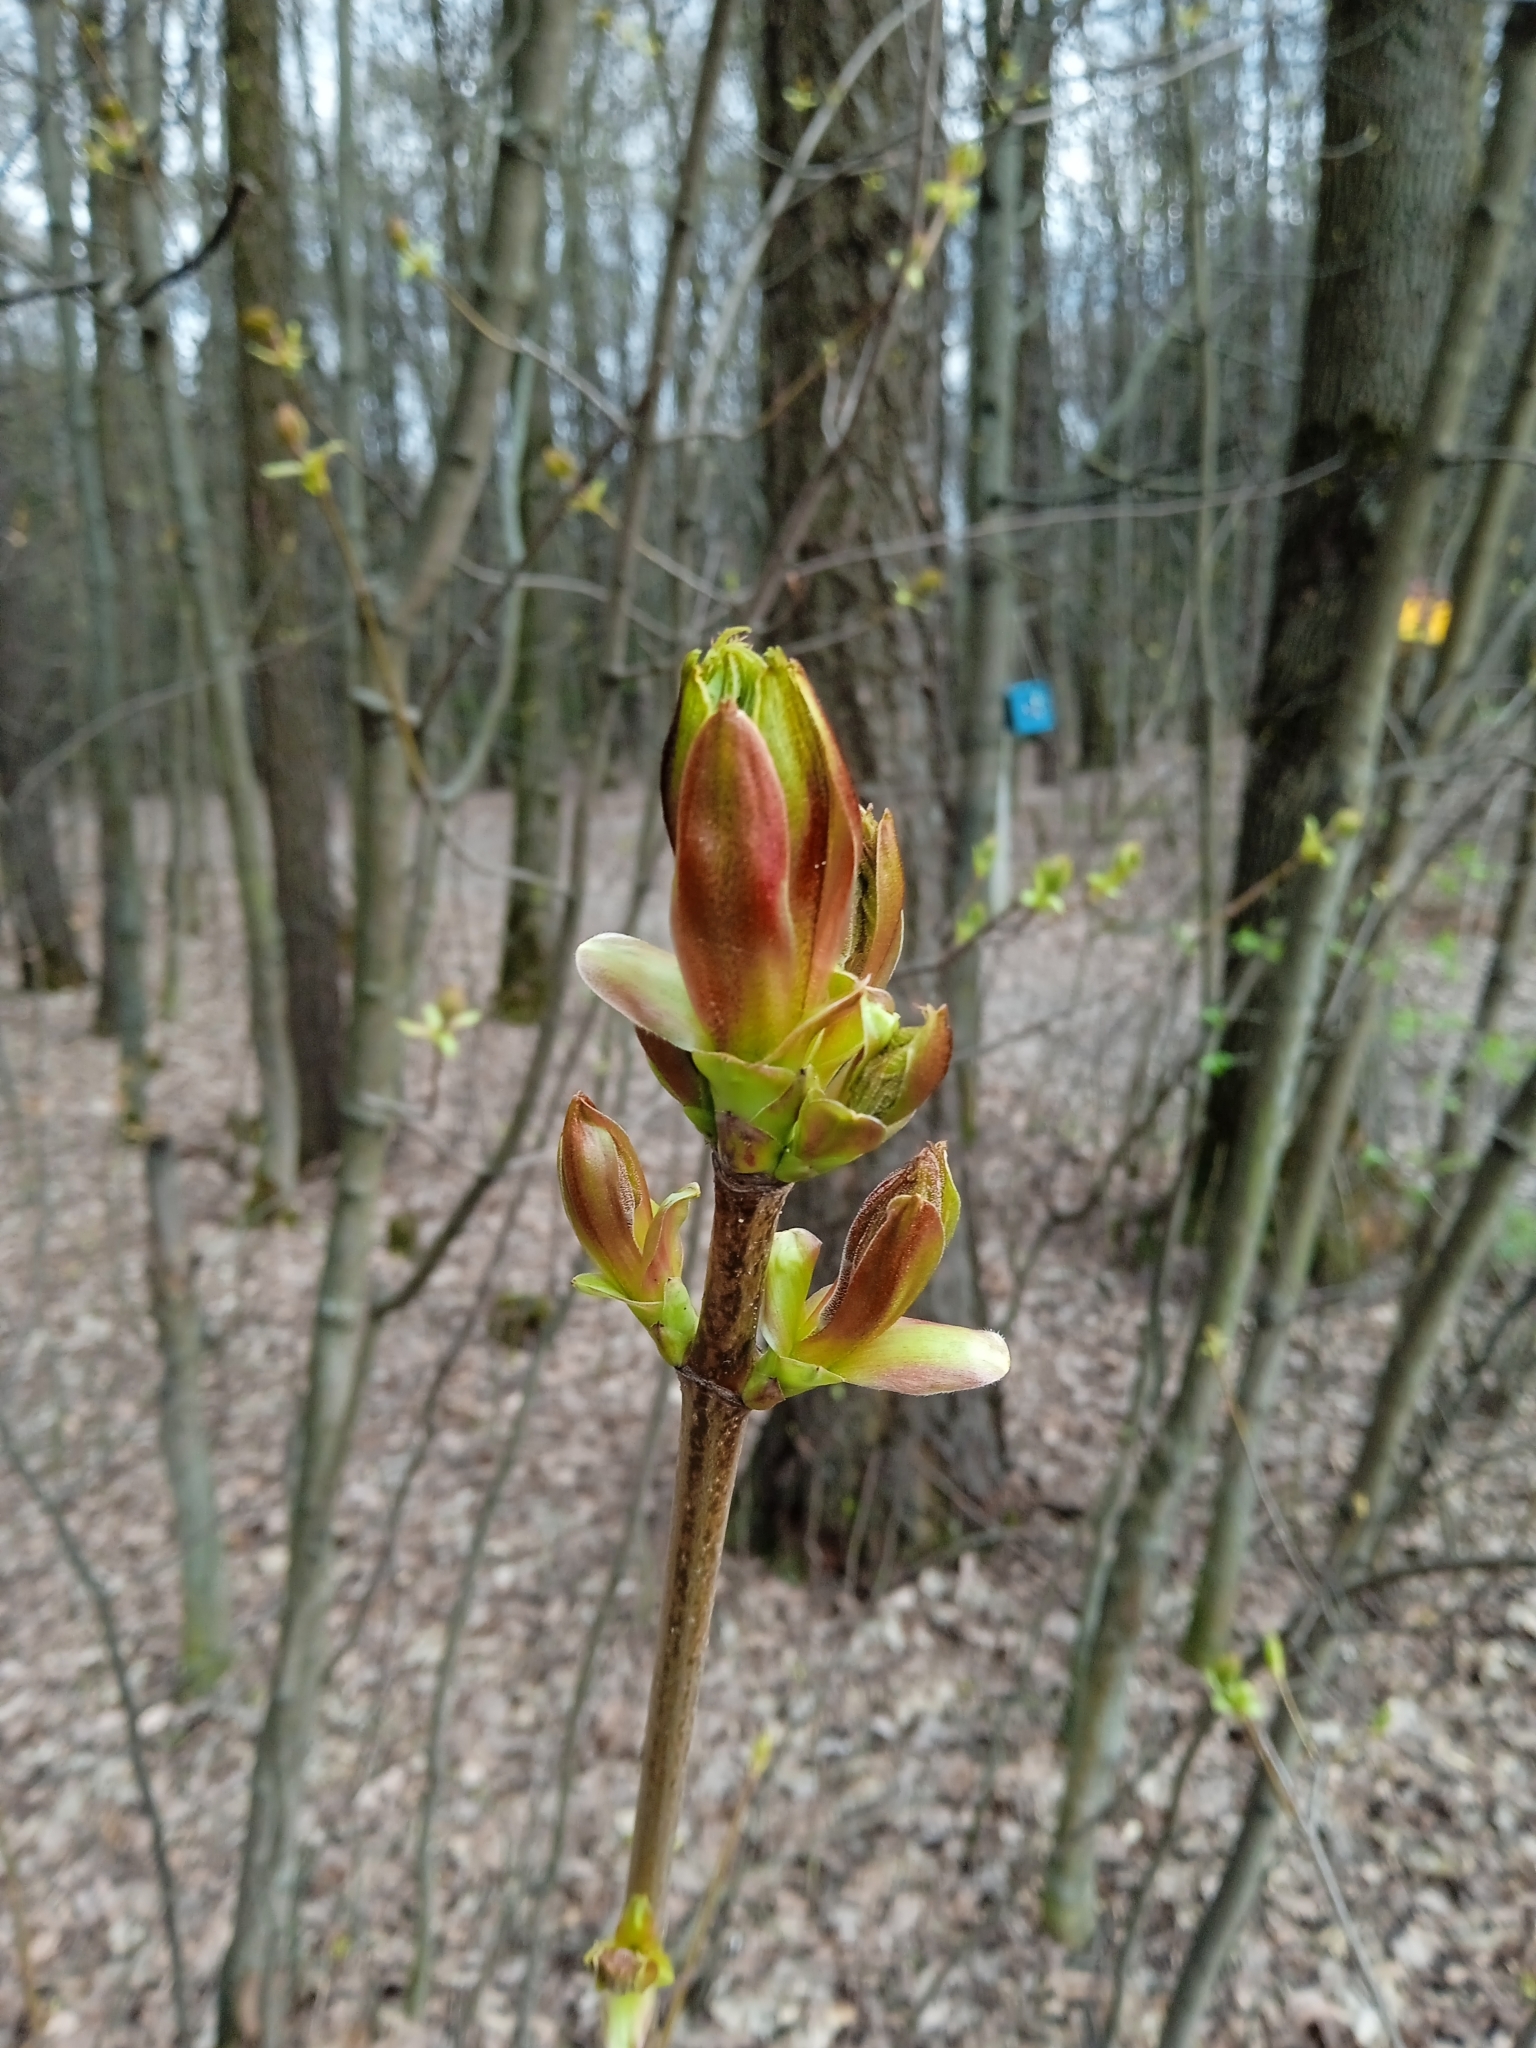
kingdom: Plantae
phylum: Tracheophyta
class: Magnoliopsida
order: Sapindales
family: Sapindaceae
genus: Acer
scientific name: Acer platanoides
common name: Norway maple
